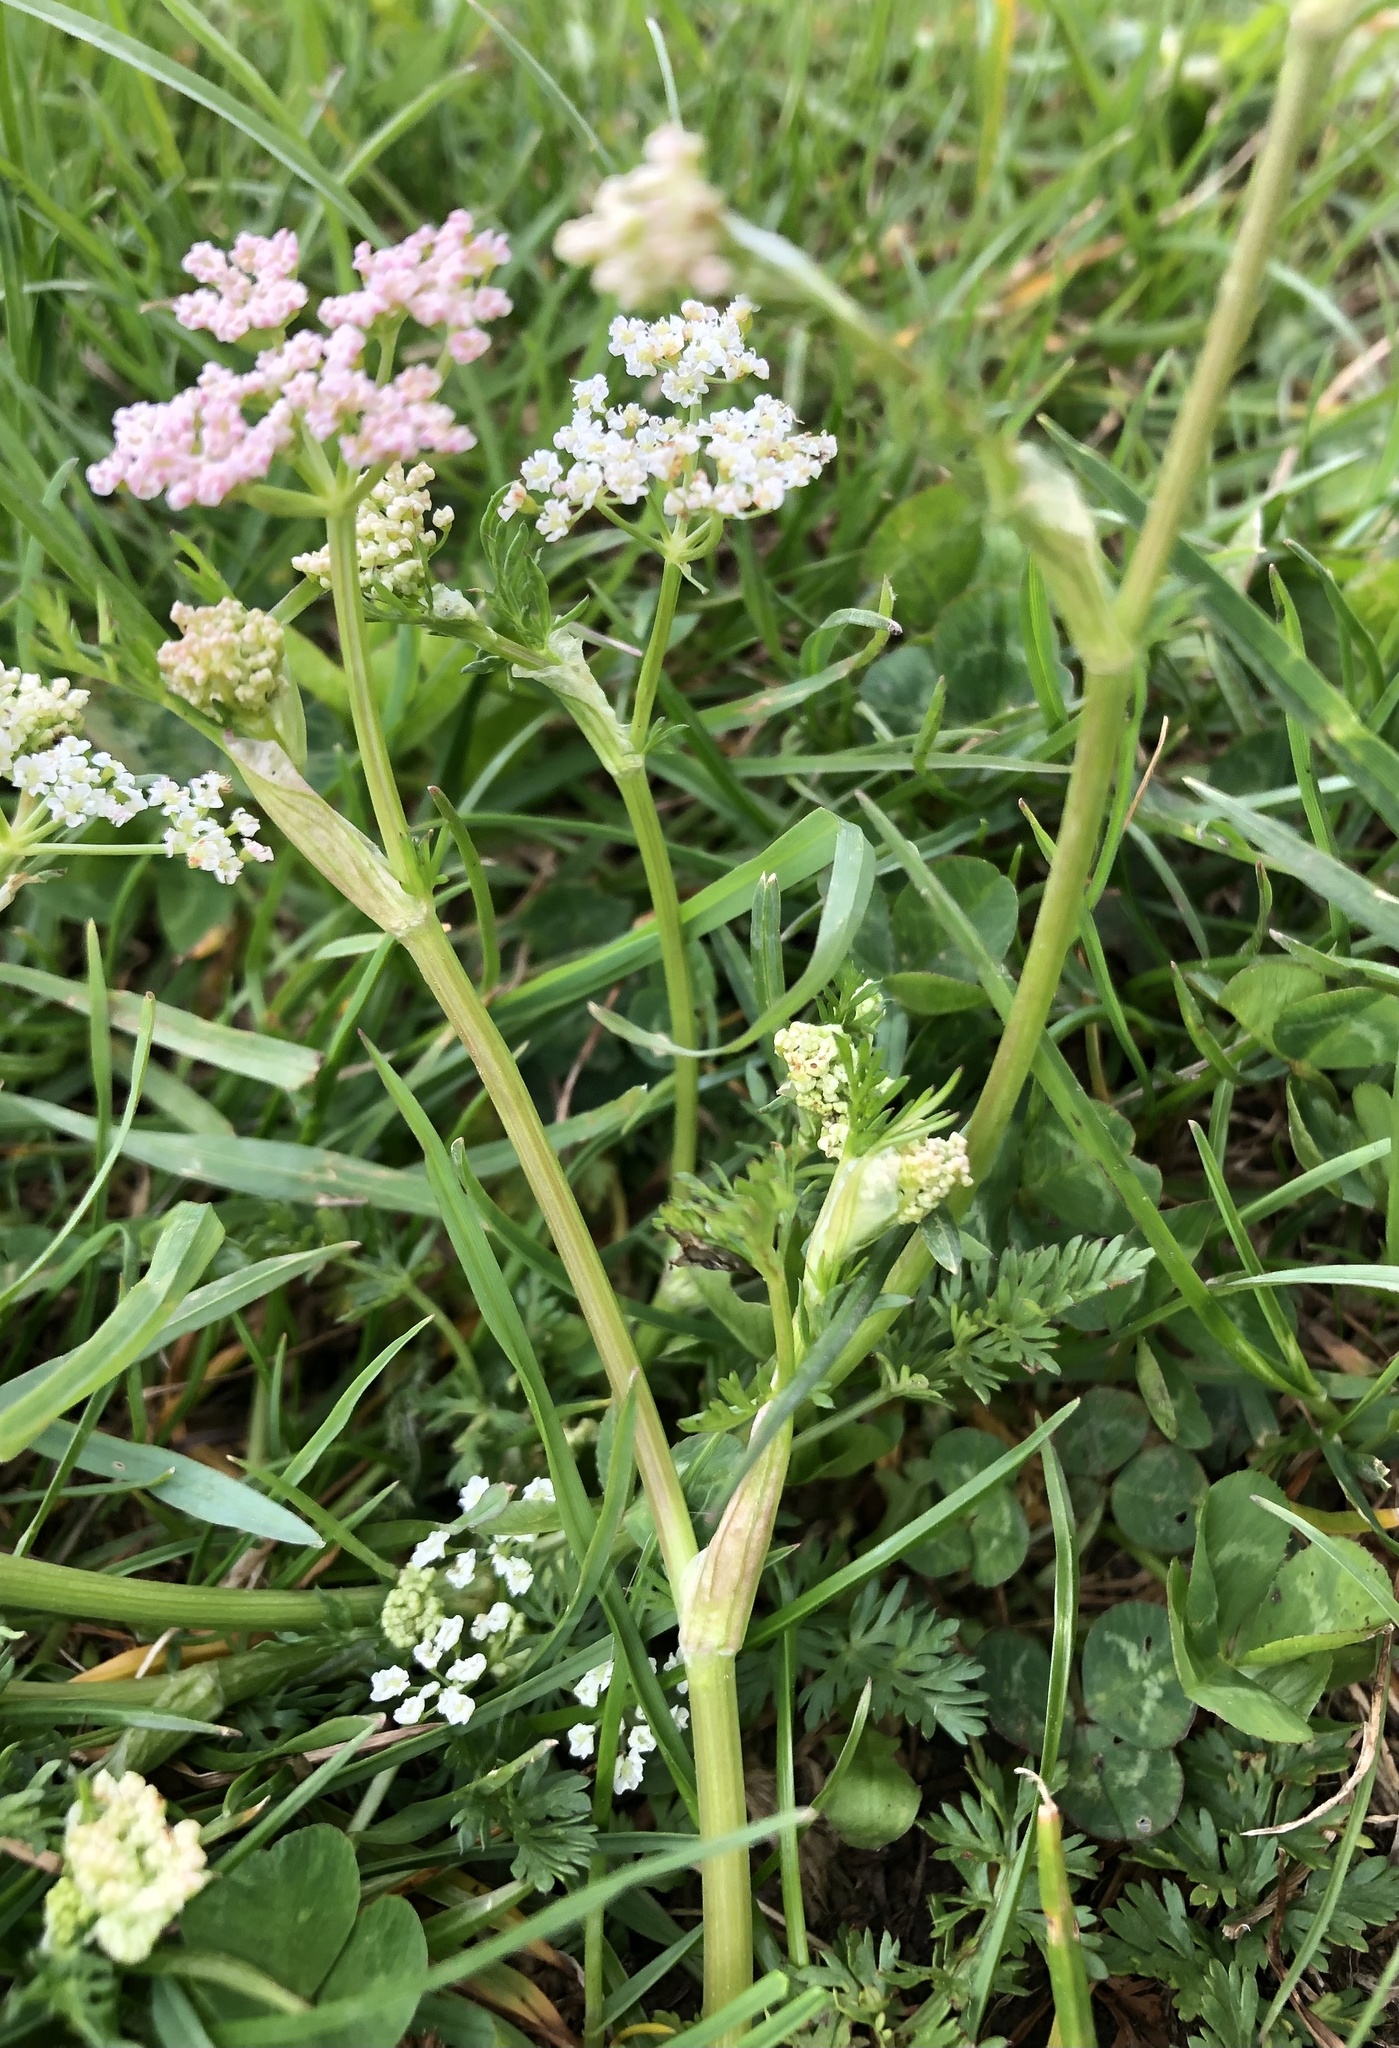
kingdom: Plantae
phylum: Tracheophyta
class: Magnoliopsida
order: Apiales
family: Apiaceae
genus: Carum
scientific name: Carum carvi
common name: Caraway
